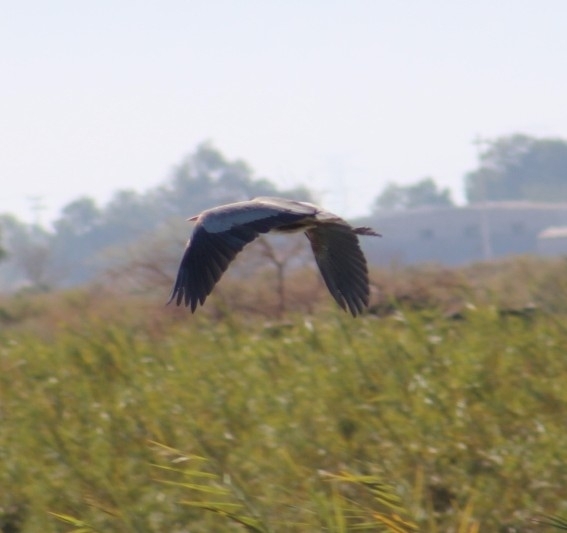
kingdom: Animalia
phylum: Chordata
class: Aves
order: Pelecaniformes
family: Ardeidae
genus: Ardea
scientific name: Ardea herodias
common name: Great blue heron
